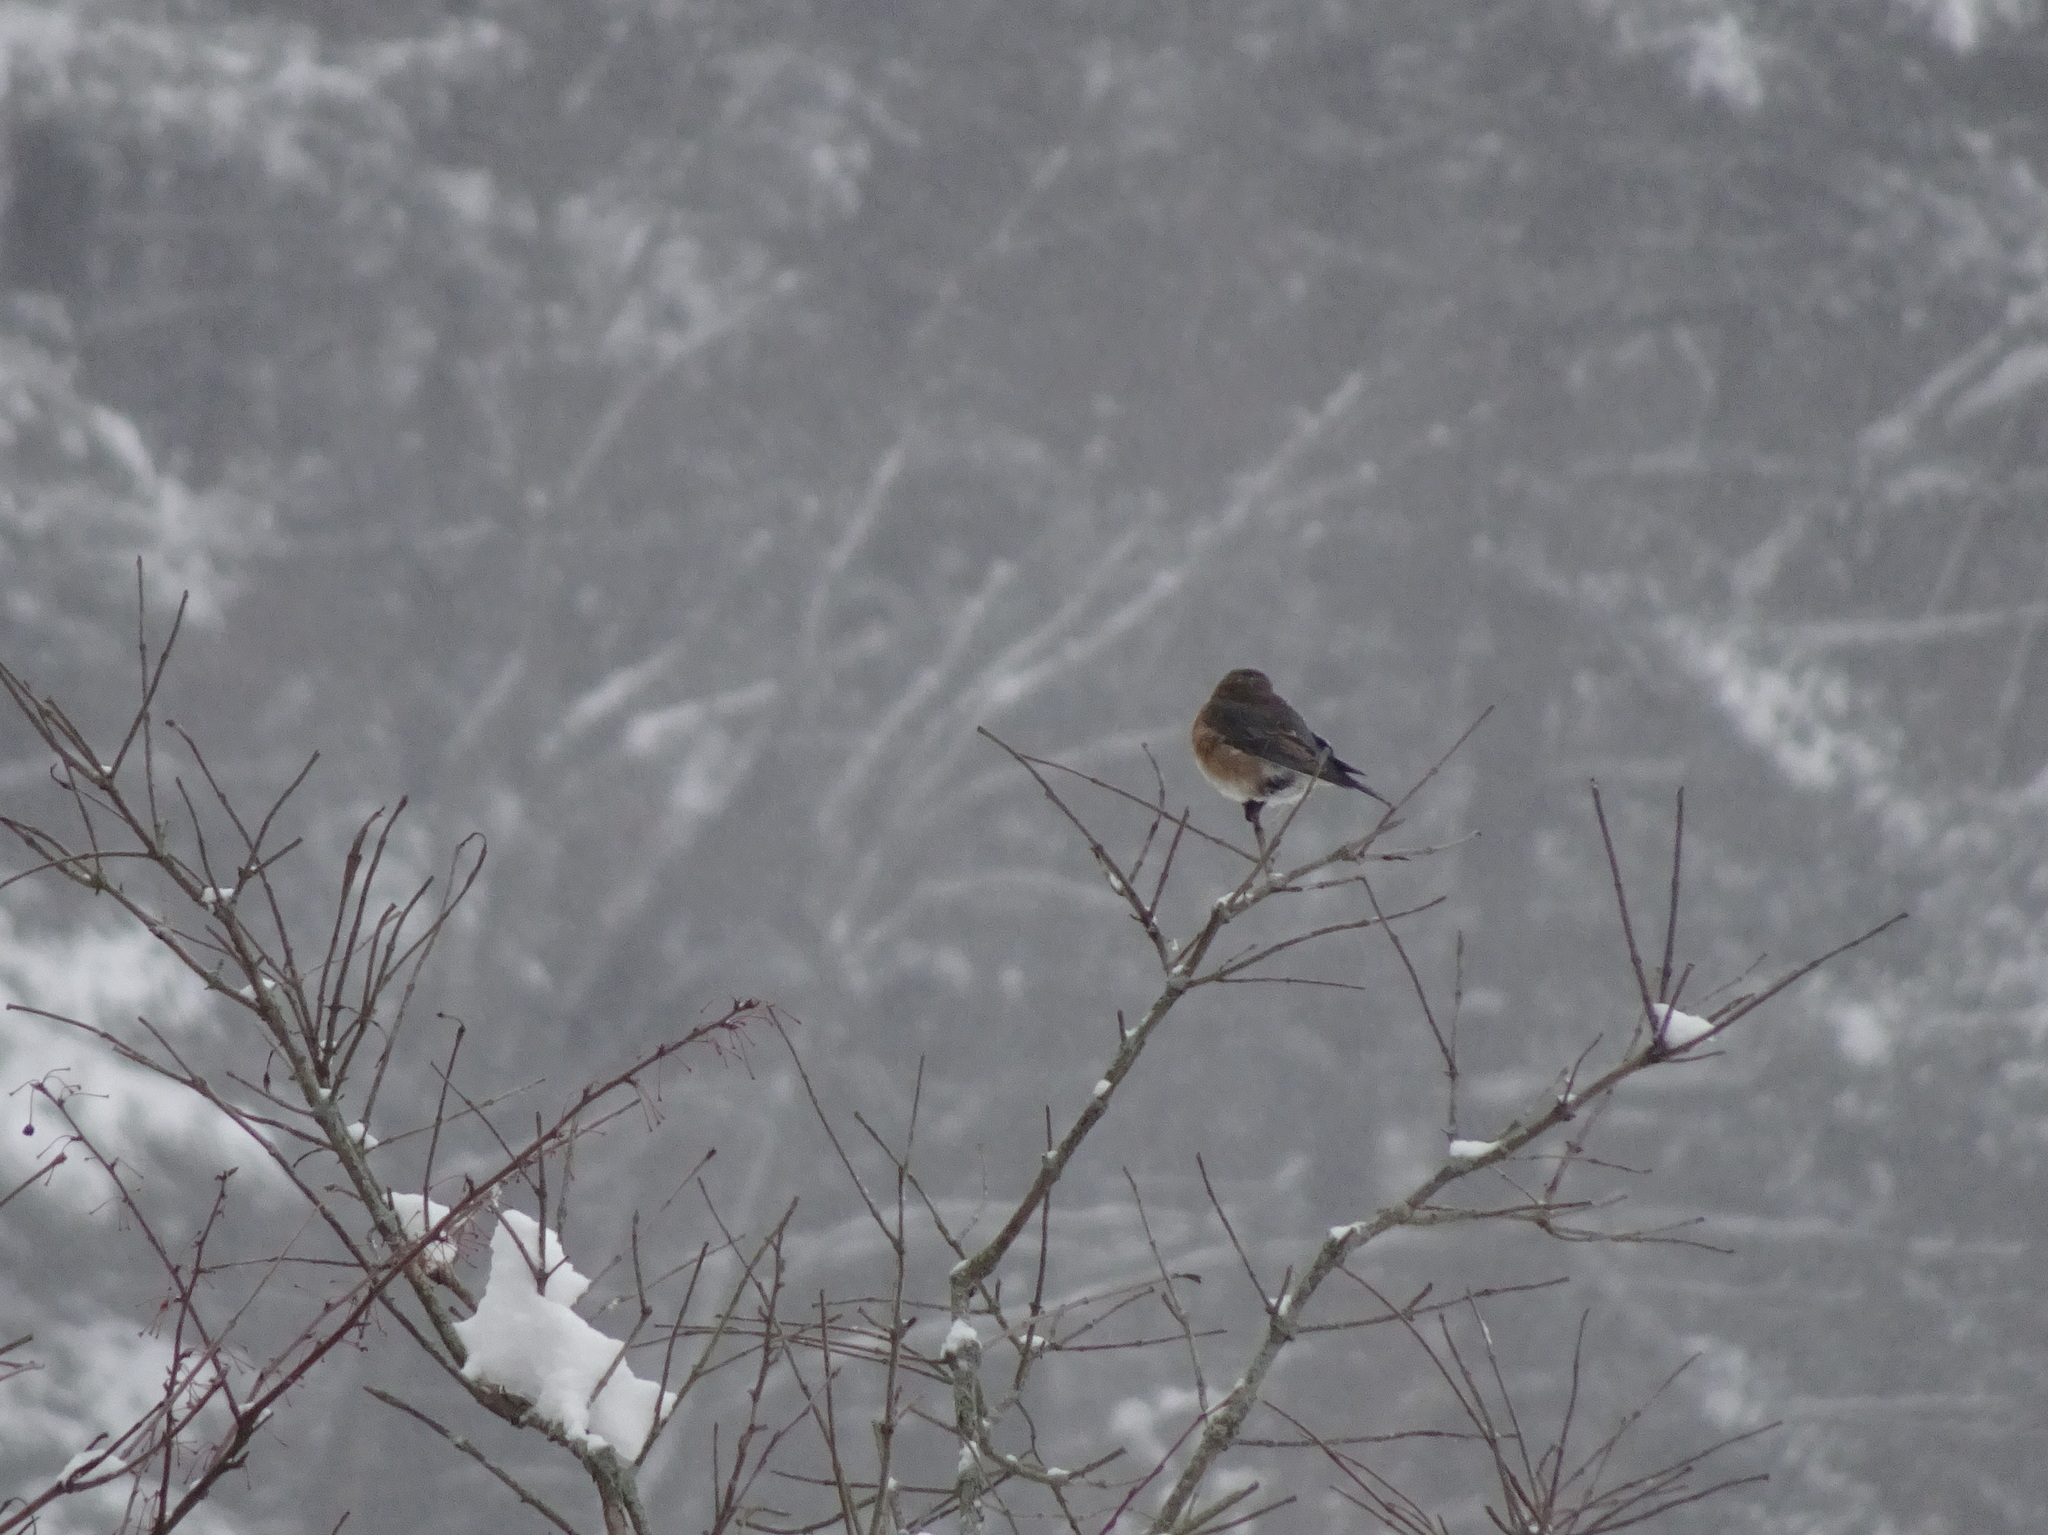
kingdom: Animalia
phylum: Chordata
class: Aves
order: Passeriformes
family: Turdidae
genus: Sialia
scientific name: Sialia sialis
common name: Eastern bluebird
